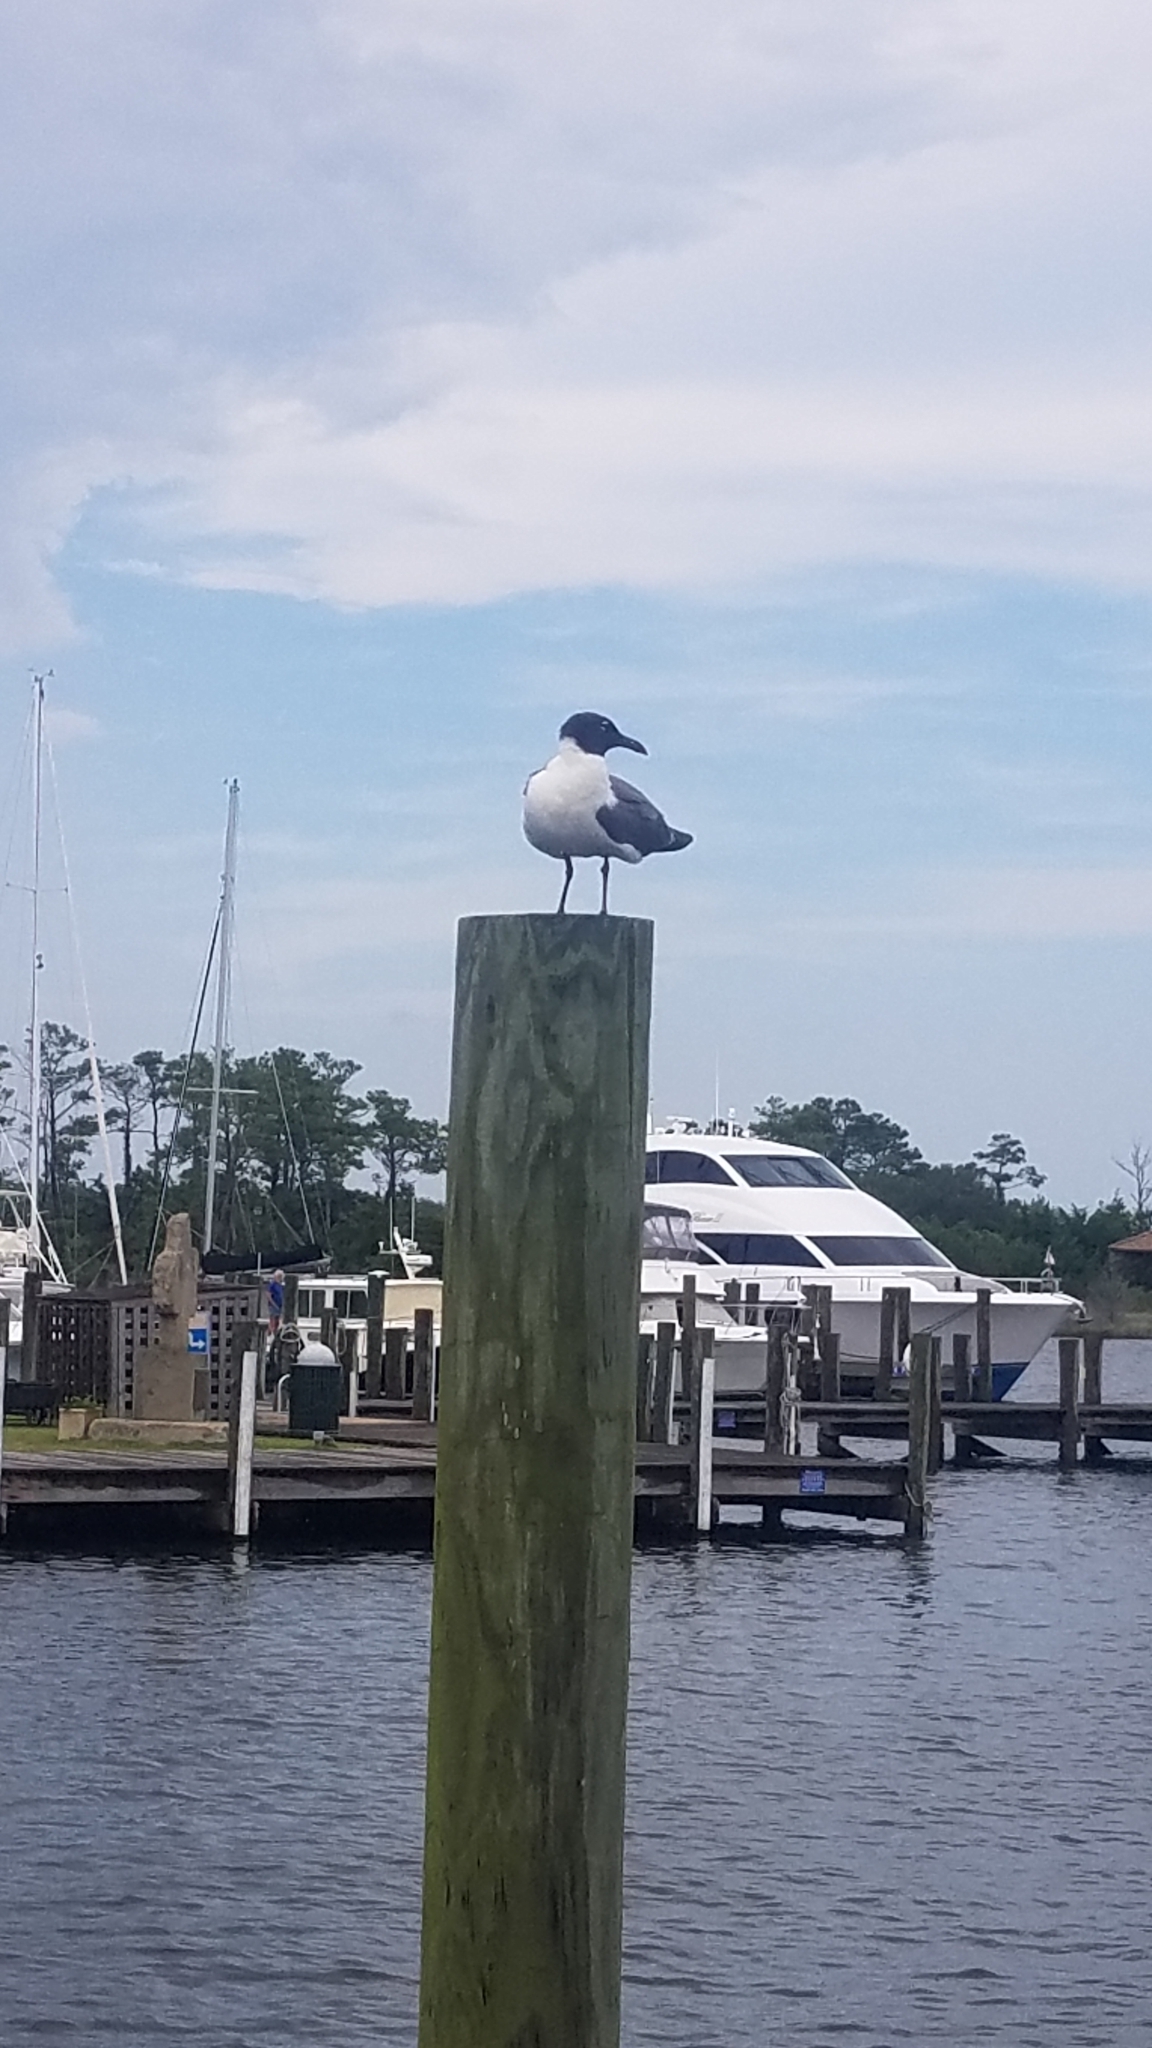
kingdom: Animalia
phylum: Chordata
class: Aves
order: Charadriiformes
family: Laridae
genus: Leucophaeus
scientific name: Leucophaeus atricilla
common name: Laughing gull
